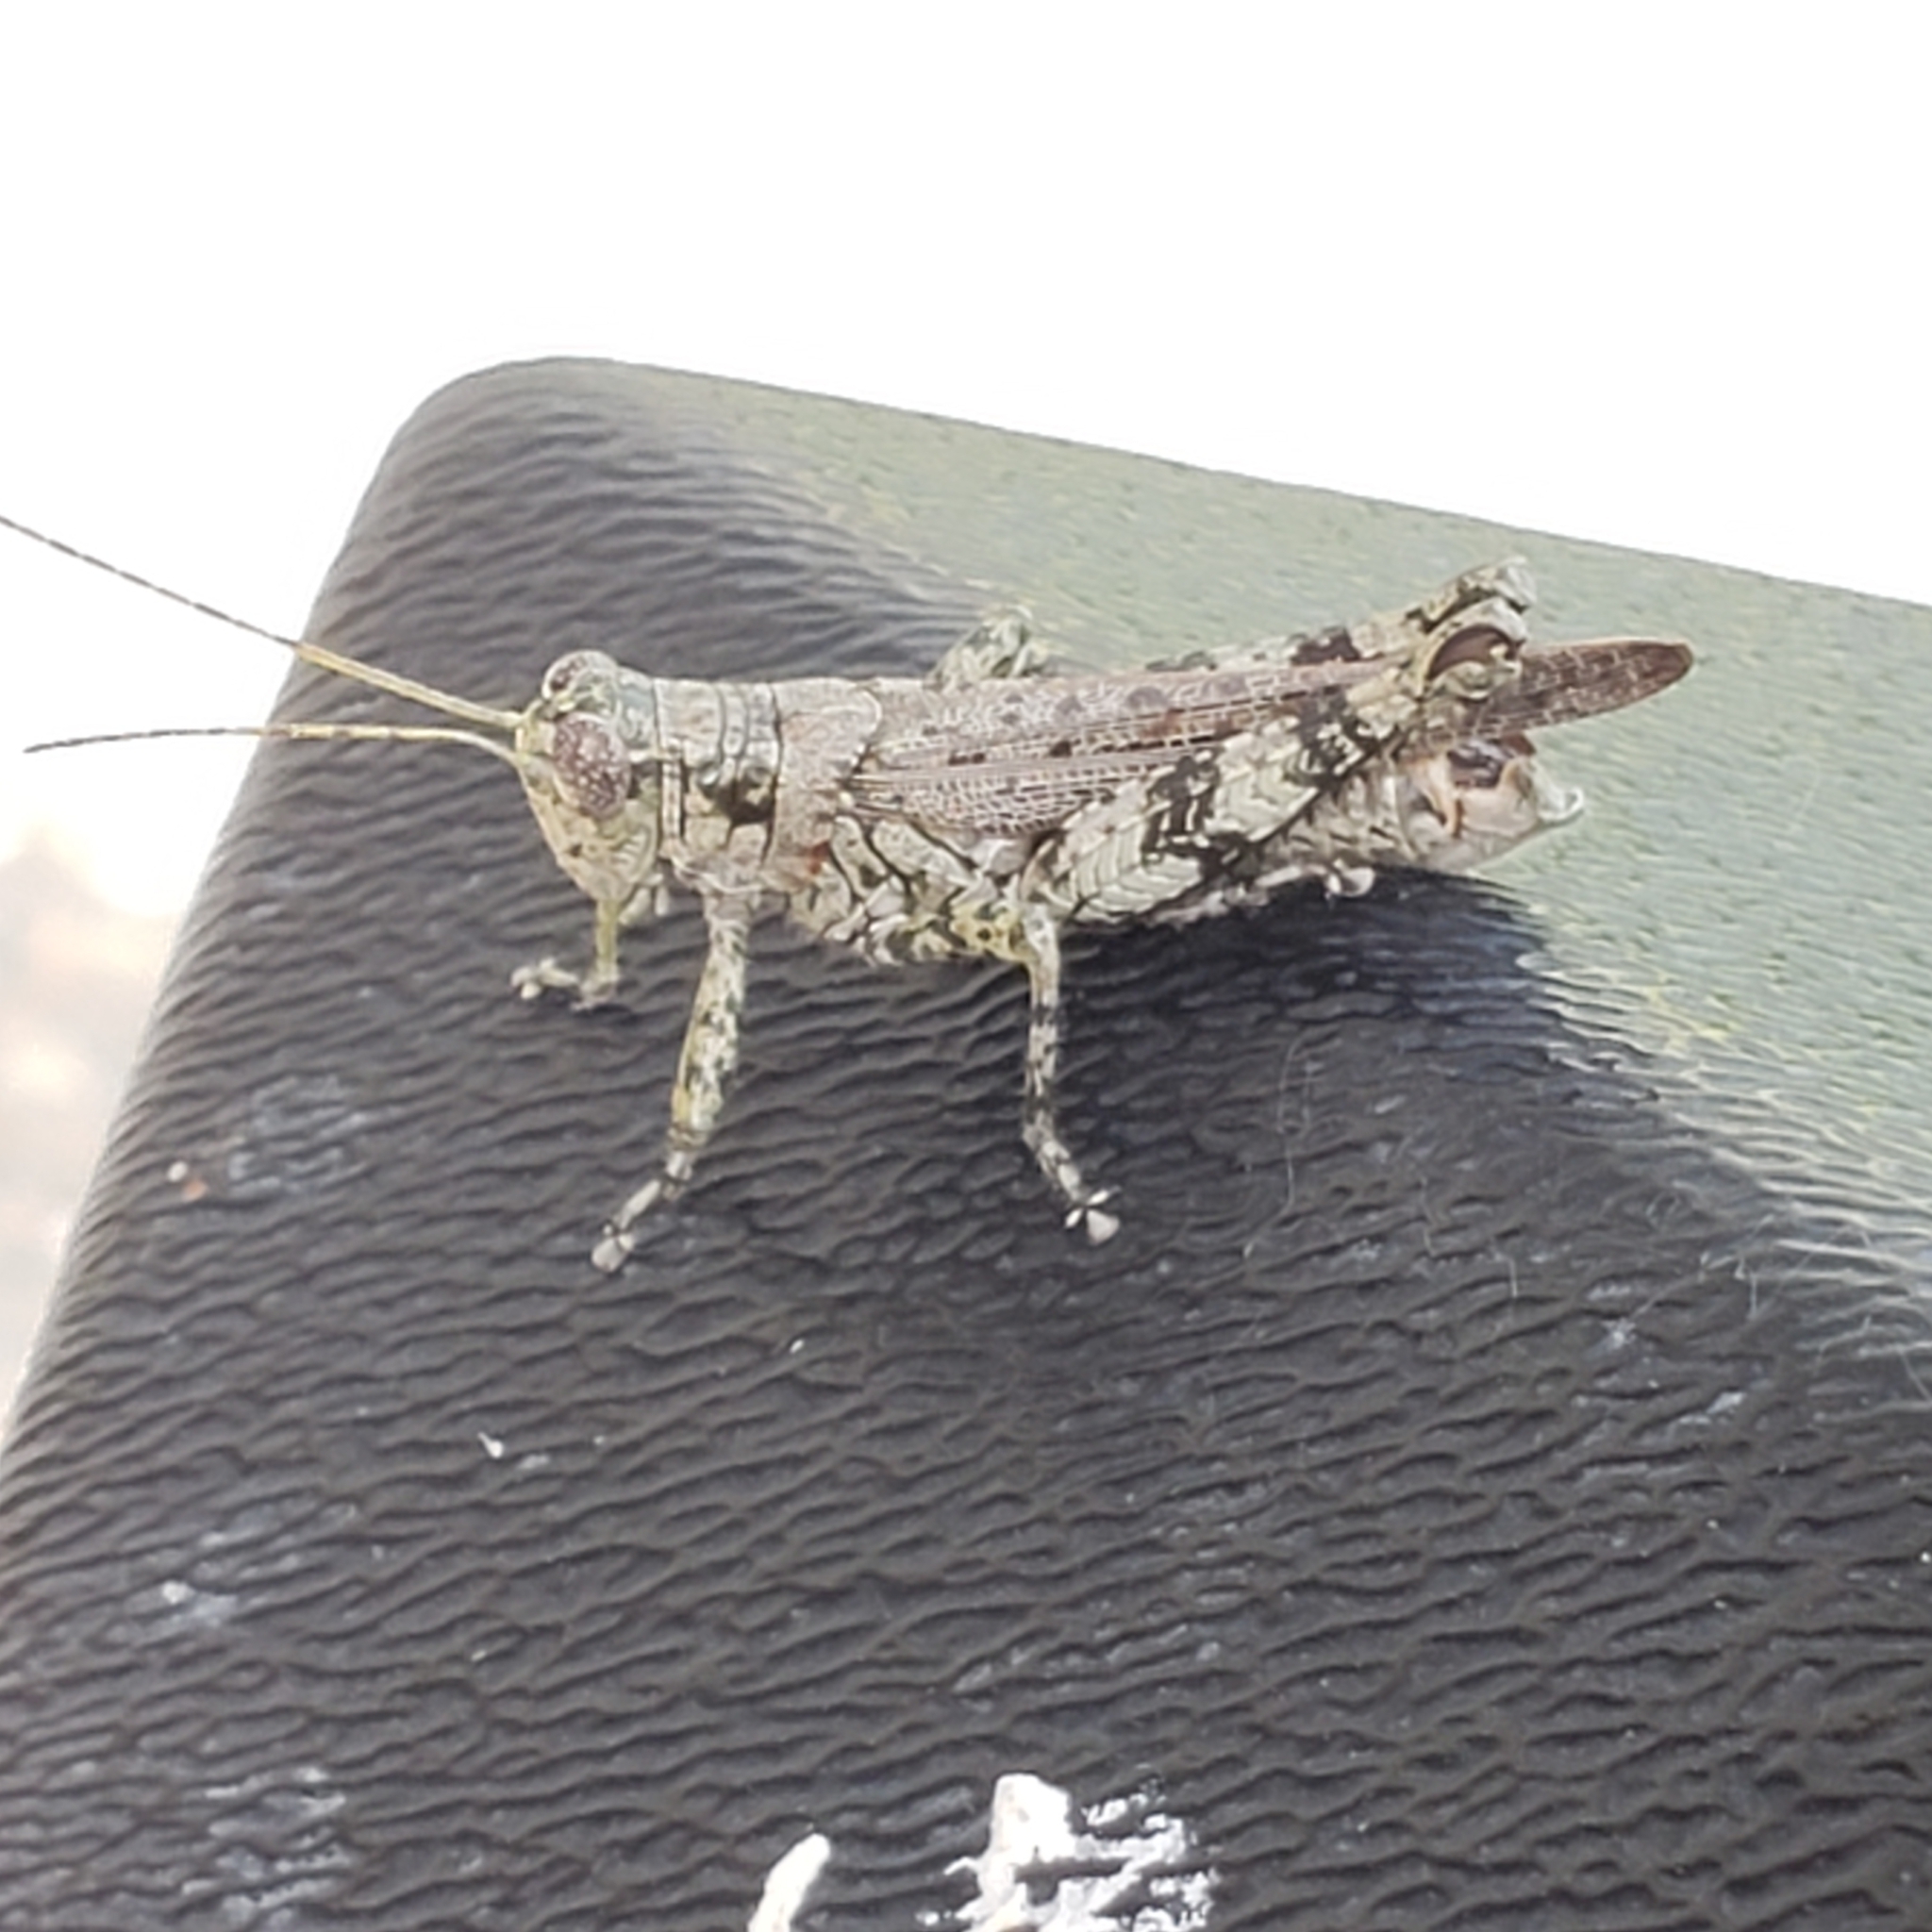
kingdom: Animalia
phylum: Arthropoda
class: Insecta
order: Orthoptera
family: Acrididae
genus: Melanoplus
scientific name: Melanoplus punctulatus
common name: Pine-tree spur-throat grasshopper
